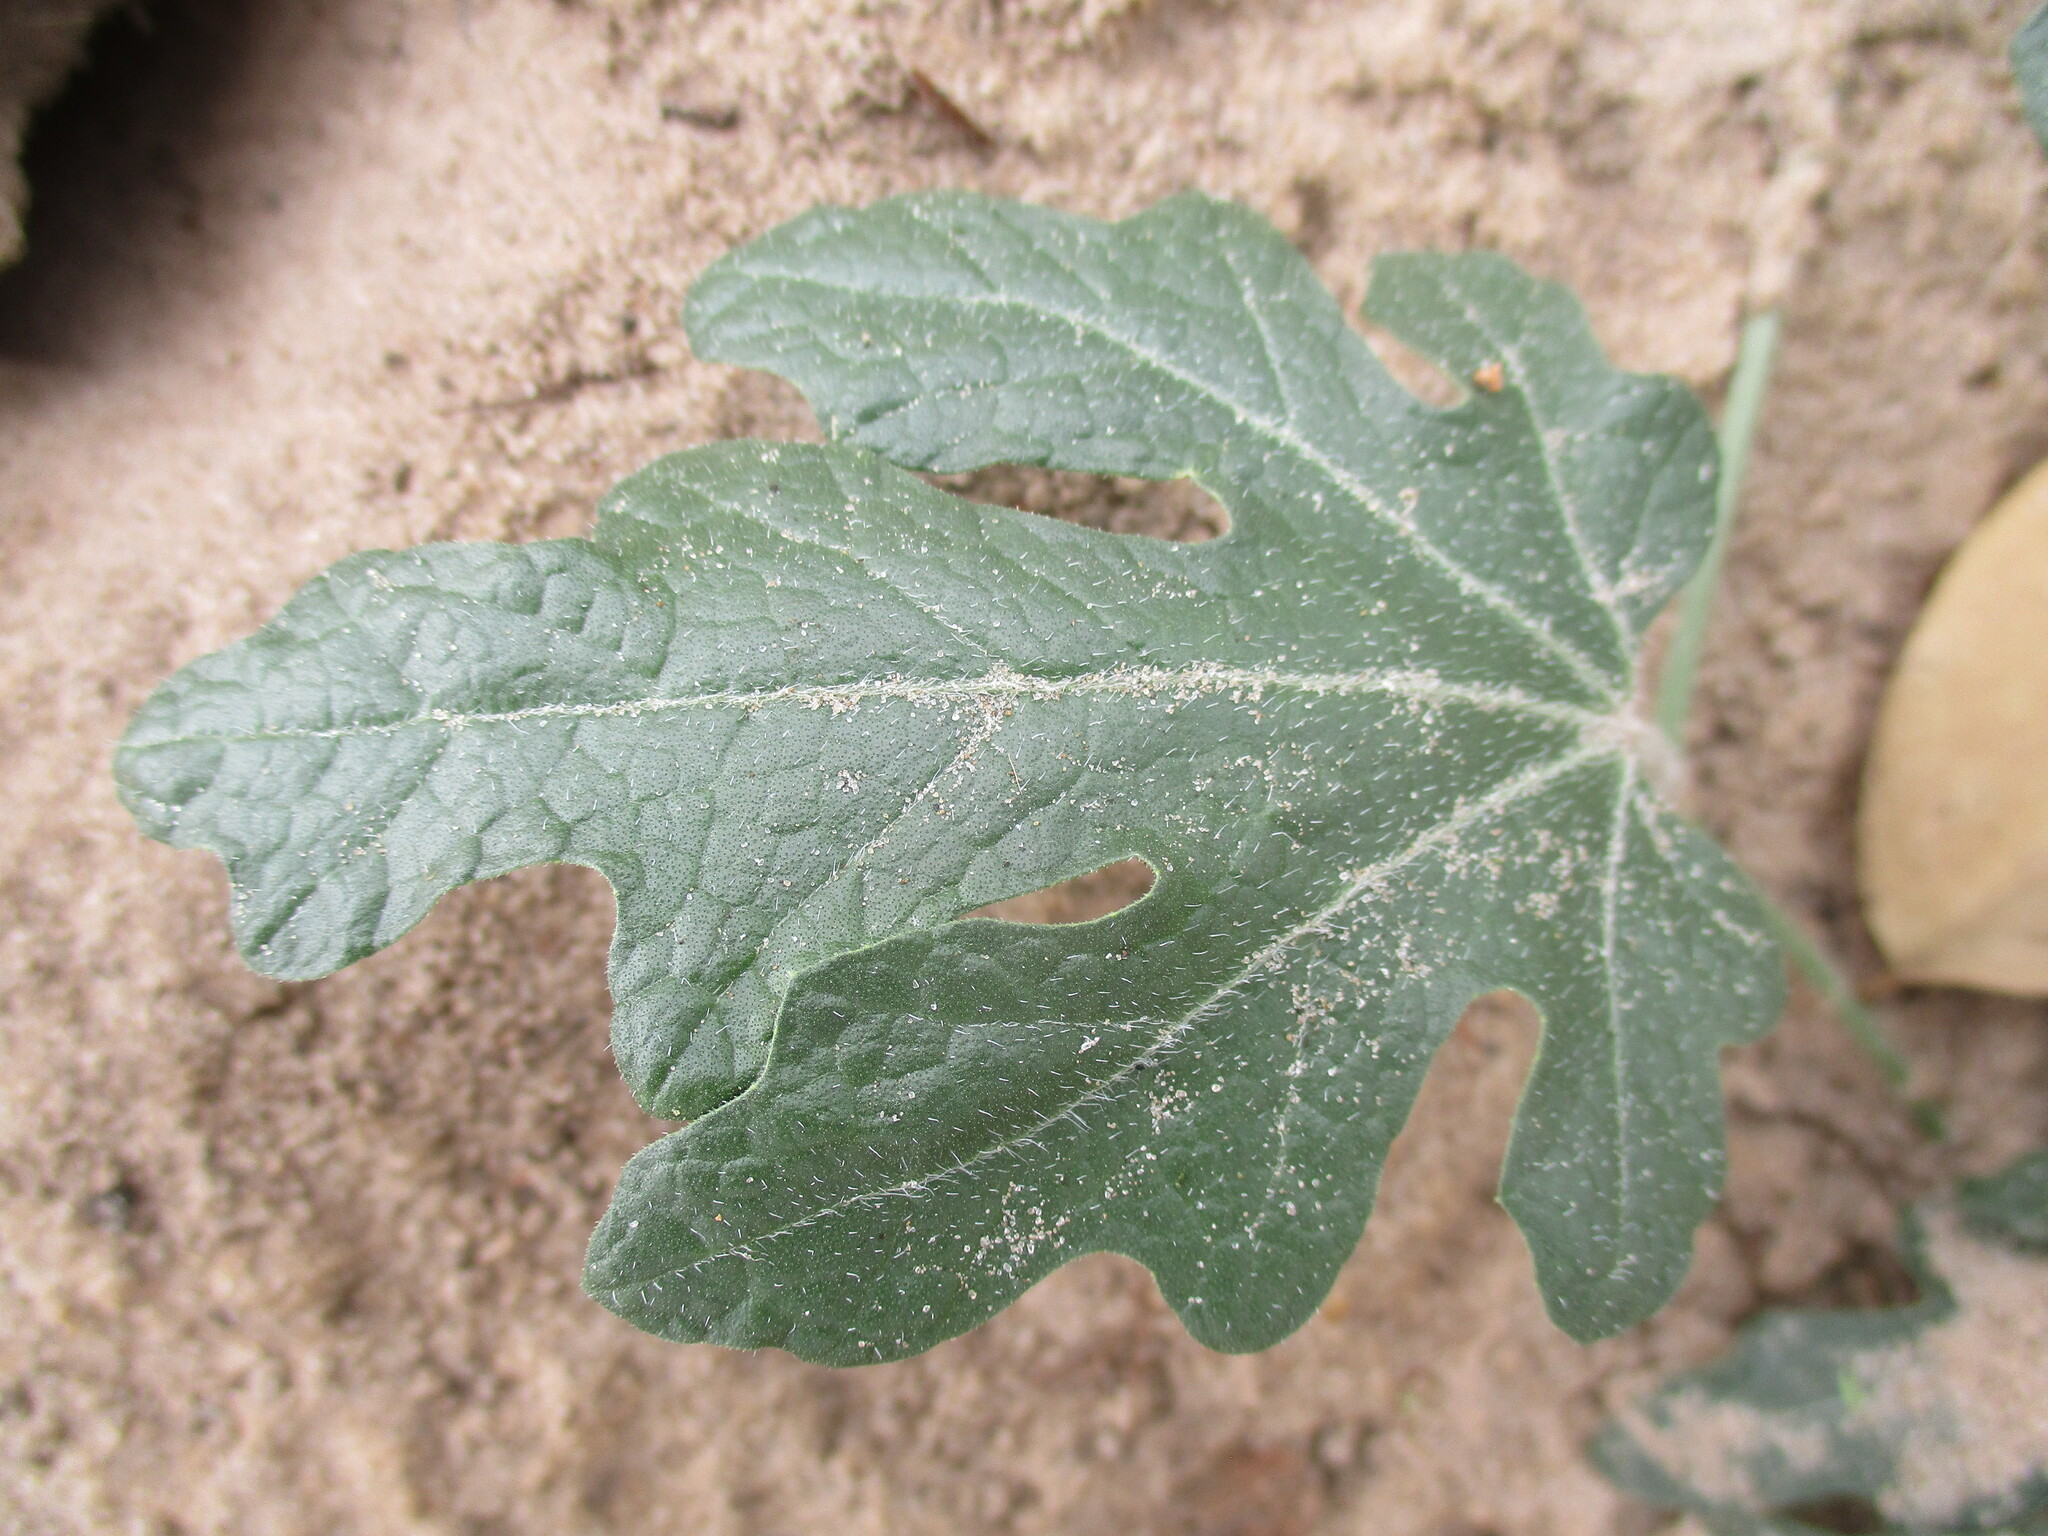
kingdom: Plantae
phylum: Tracheophyta
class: Magnoliopsida
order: Cucurbitales
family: Cucurbitaceae
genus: Citrullus
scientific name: Citrullus naudinianus
